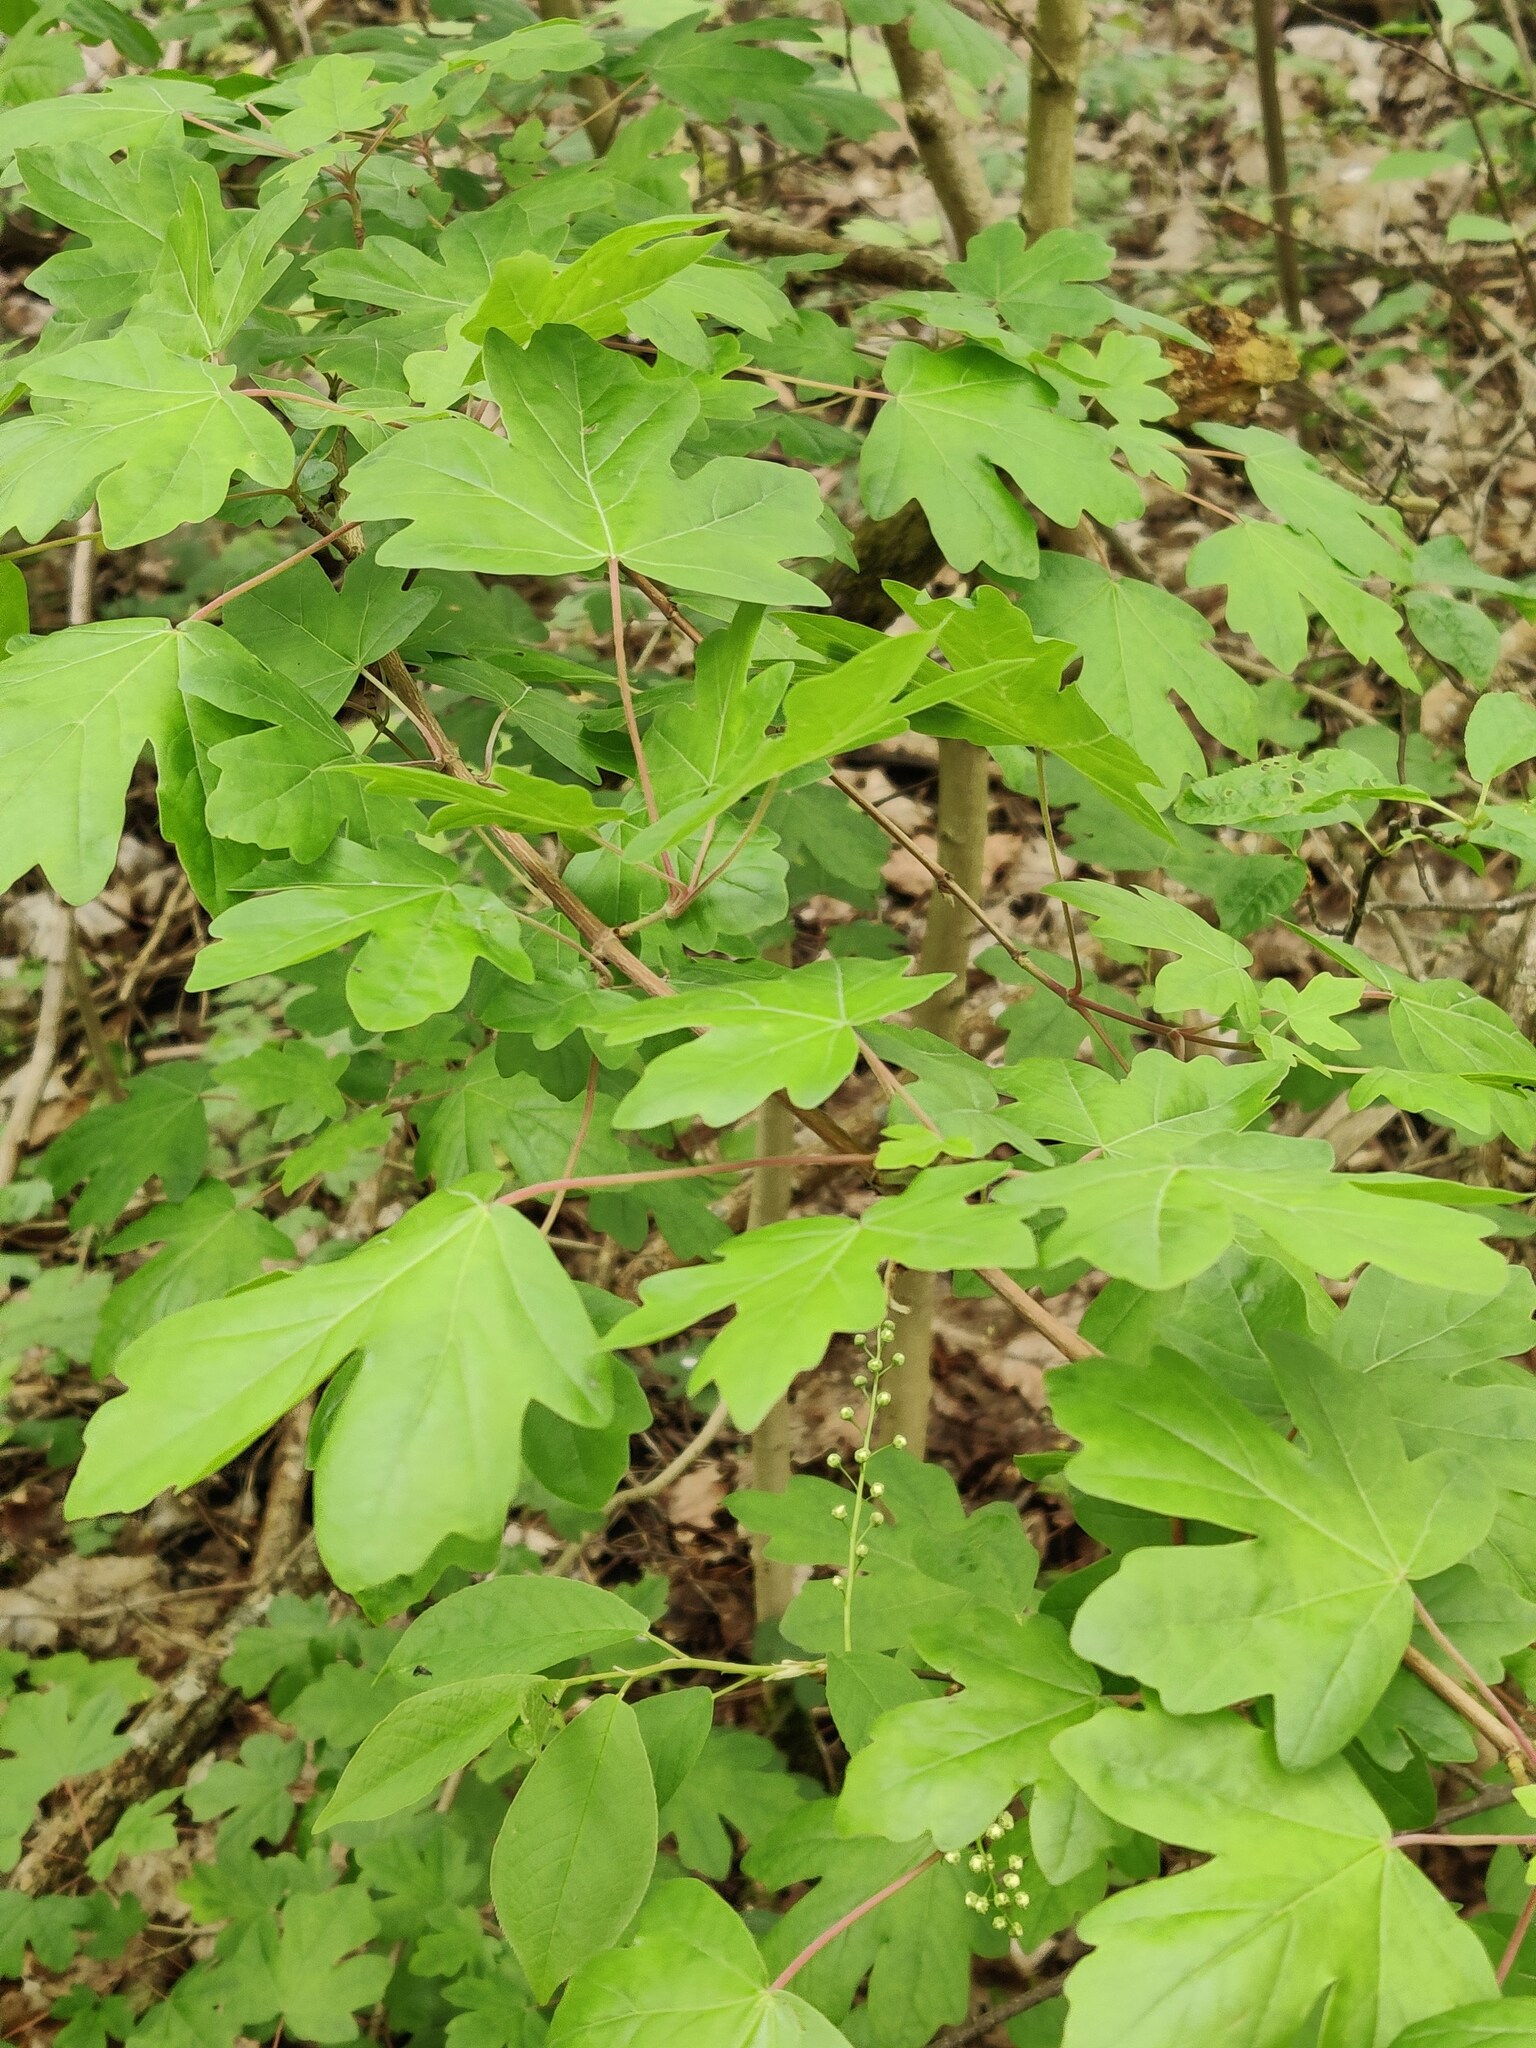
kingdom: Plantae
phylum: Tracheophyta
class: Magnoliopsida
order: Sapindales
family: Sapindaceae
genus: Acer
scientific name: Acer campestre
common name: Field maple
